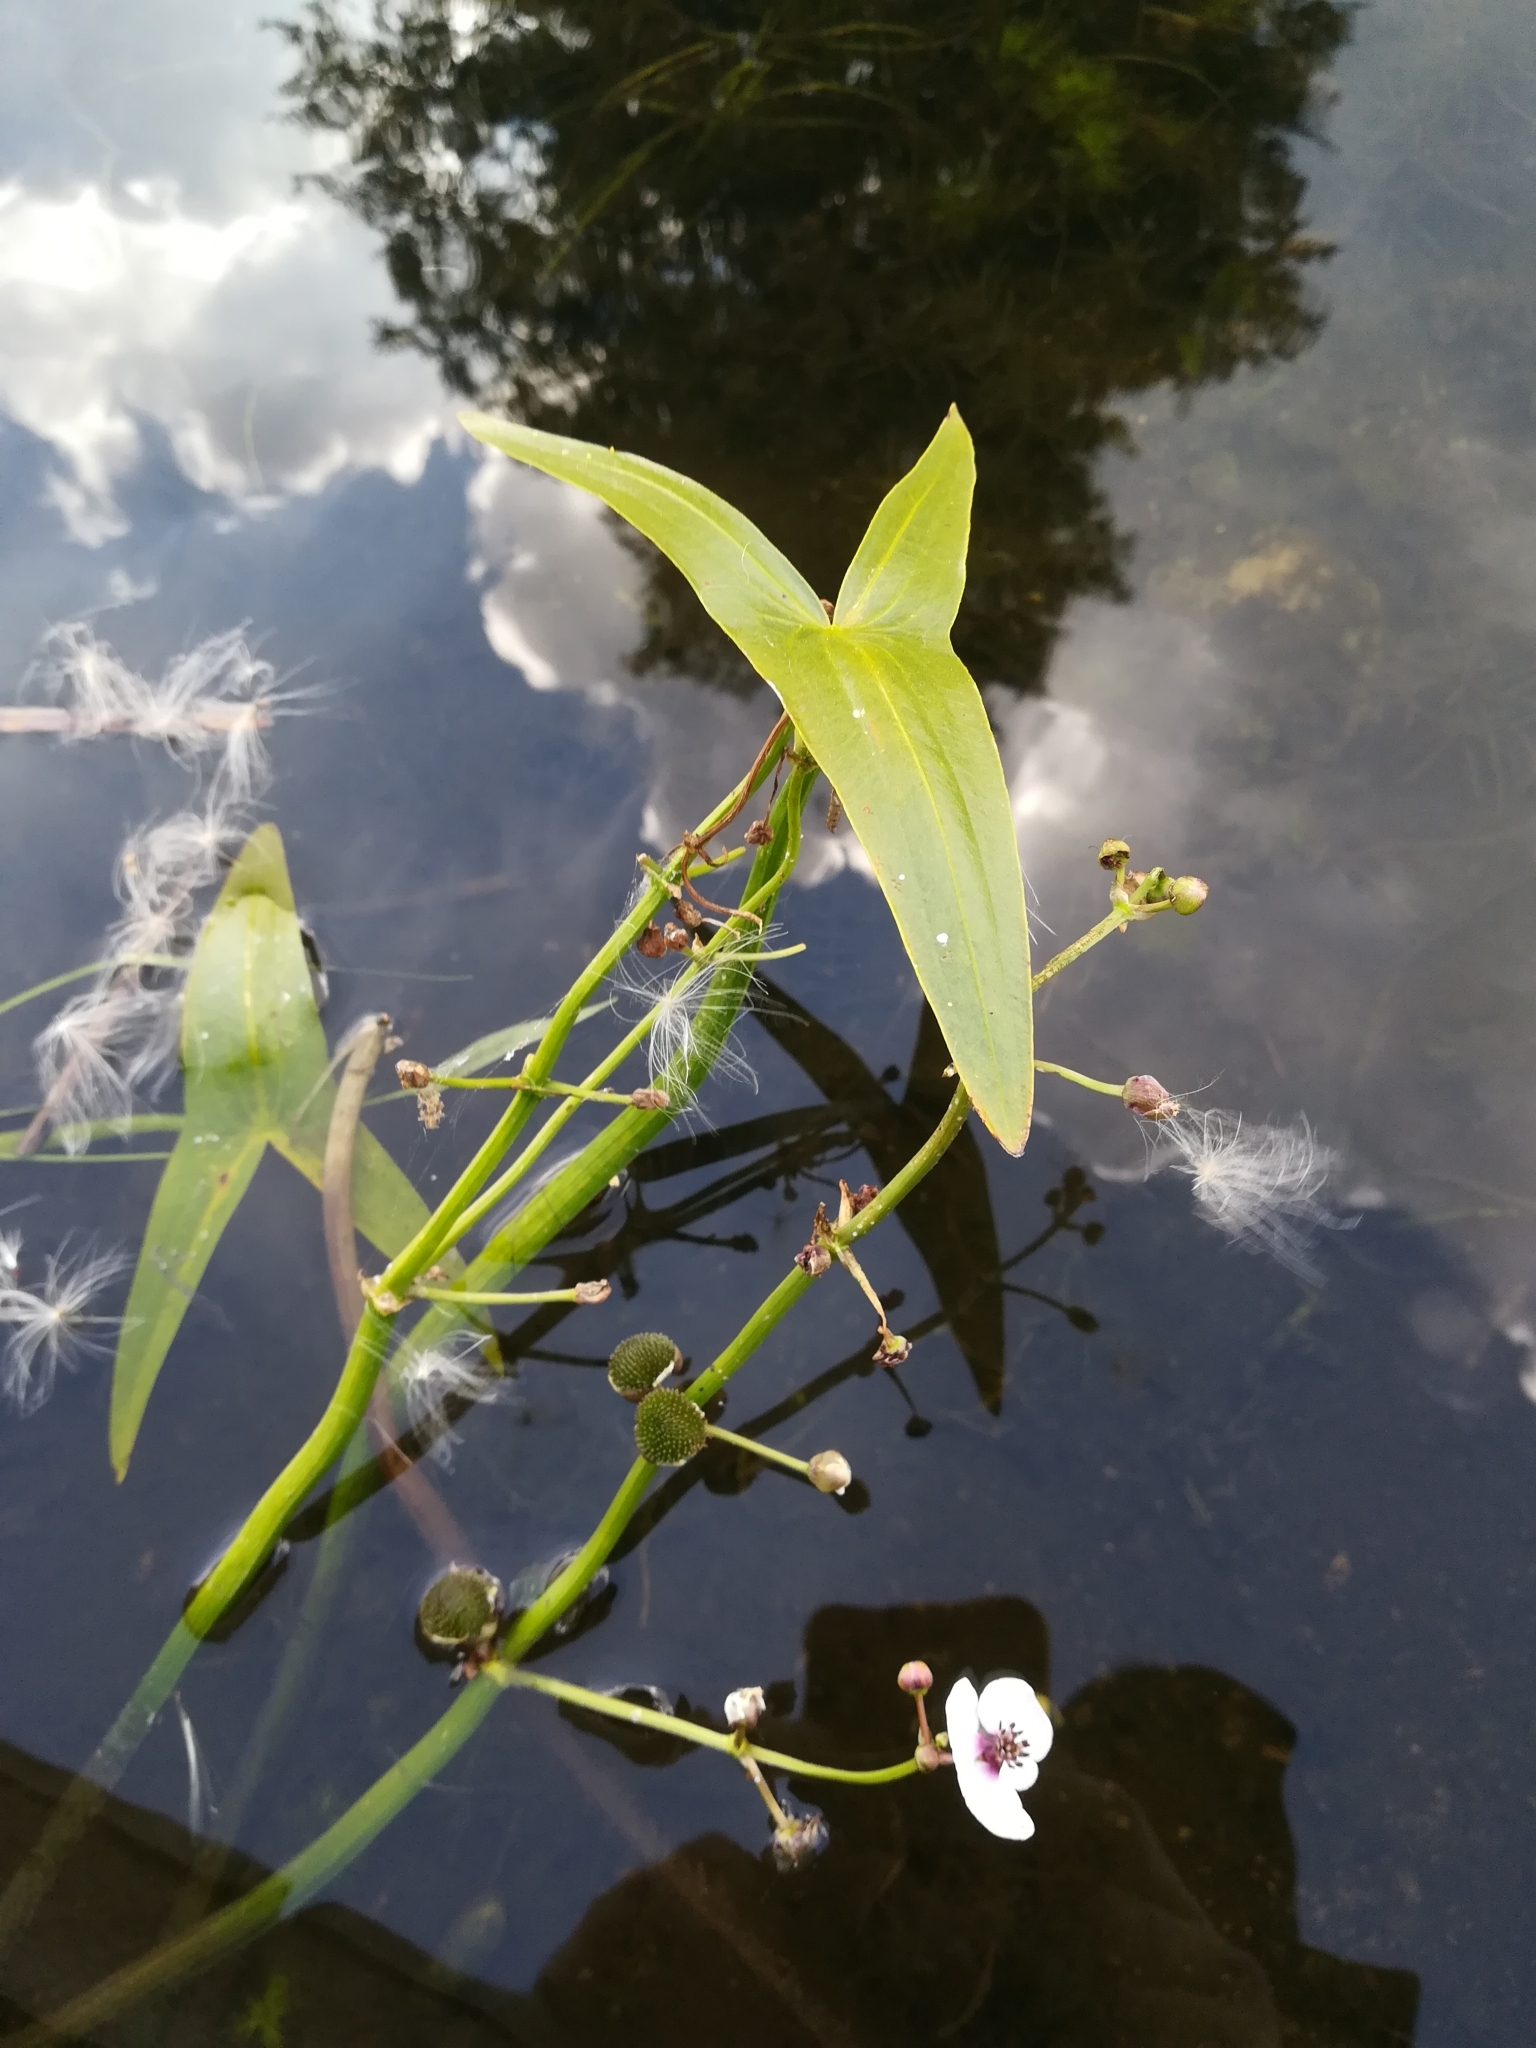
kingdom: Plantae
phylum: Tracheophyta
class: Liliopsida
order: Alismatales
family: Alismataceae
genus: Sagittaria
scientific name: Sagittaria sagittifolia
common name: Arrowhead
